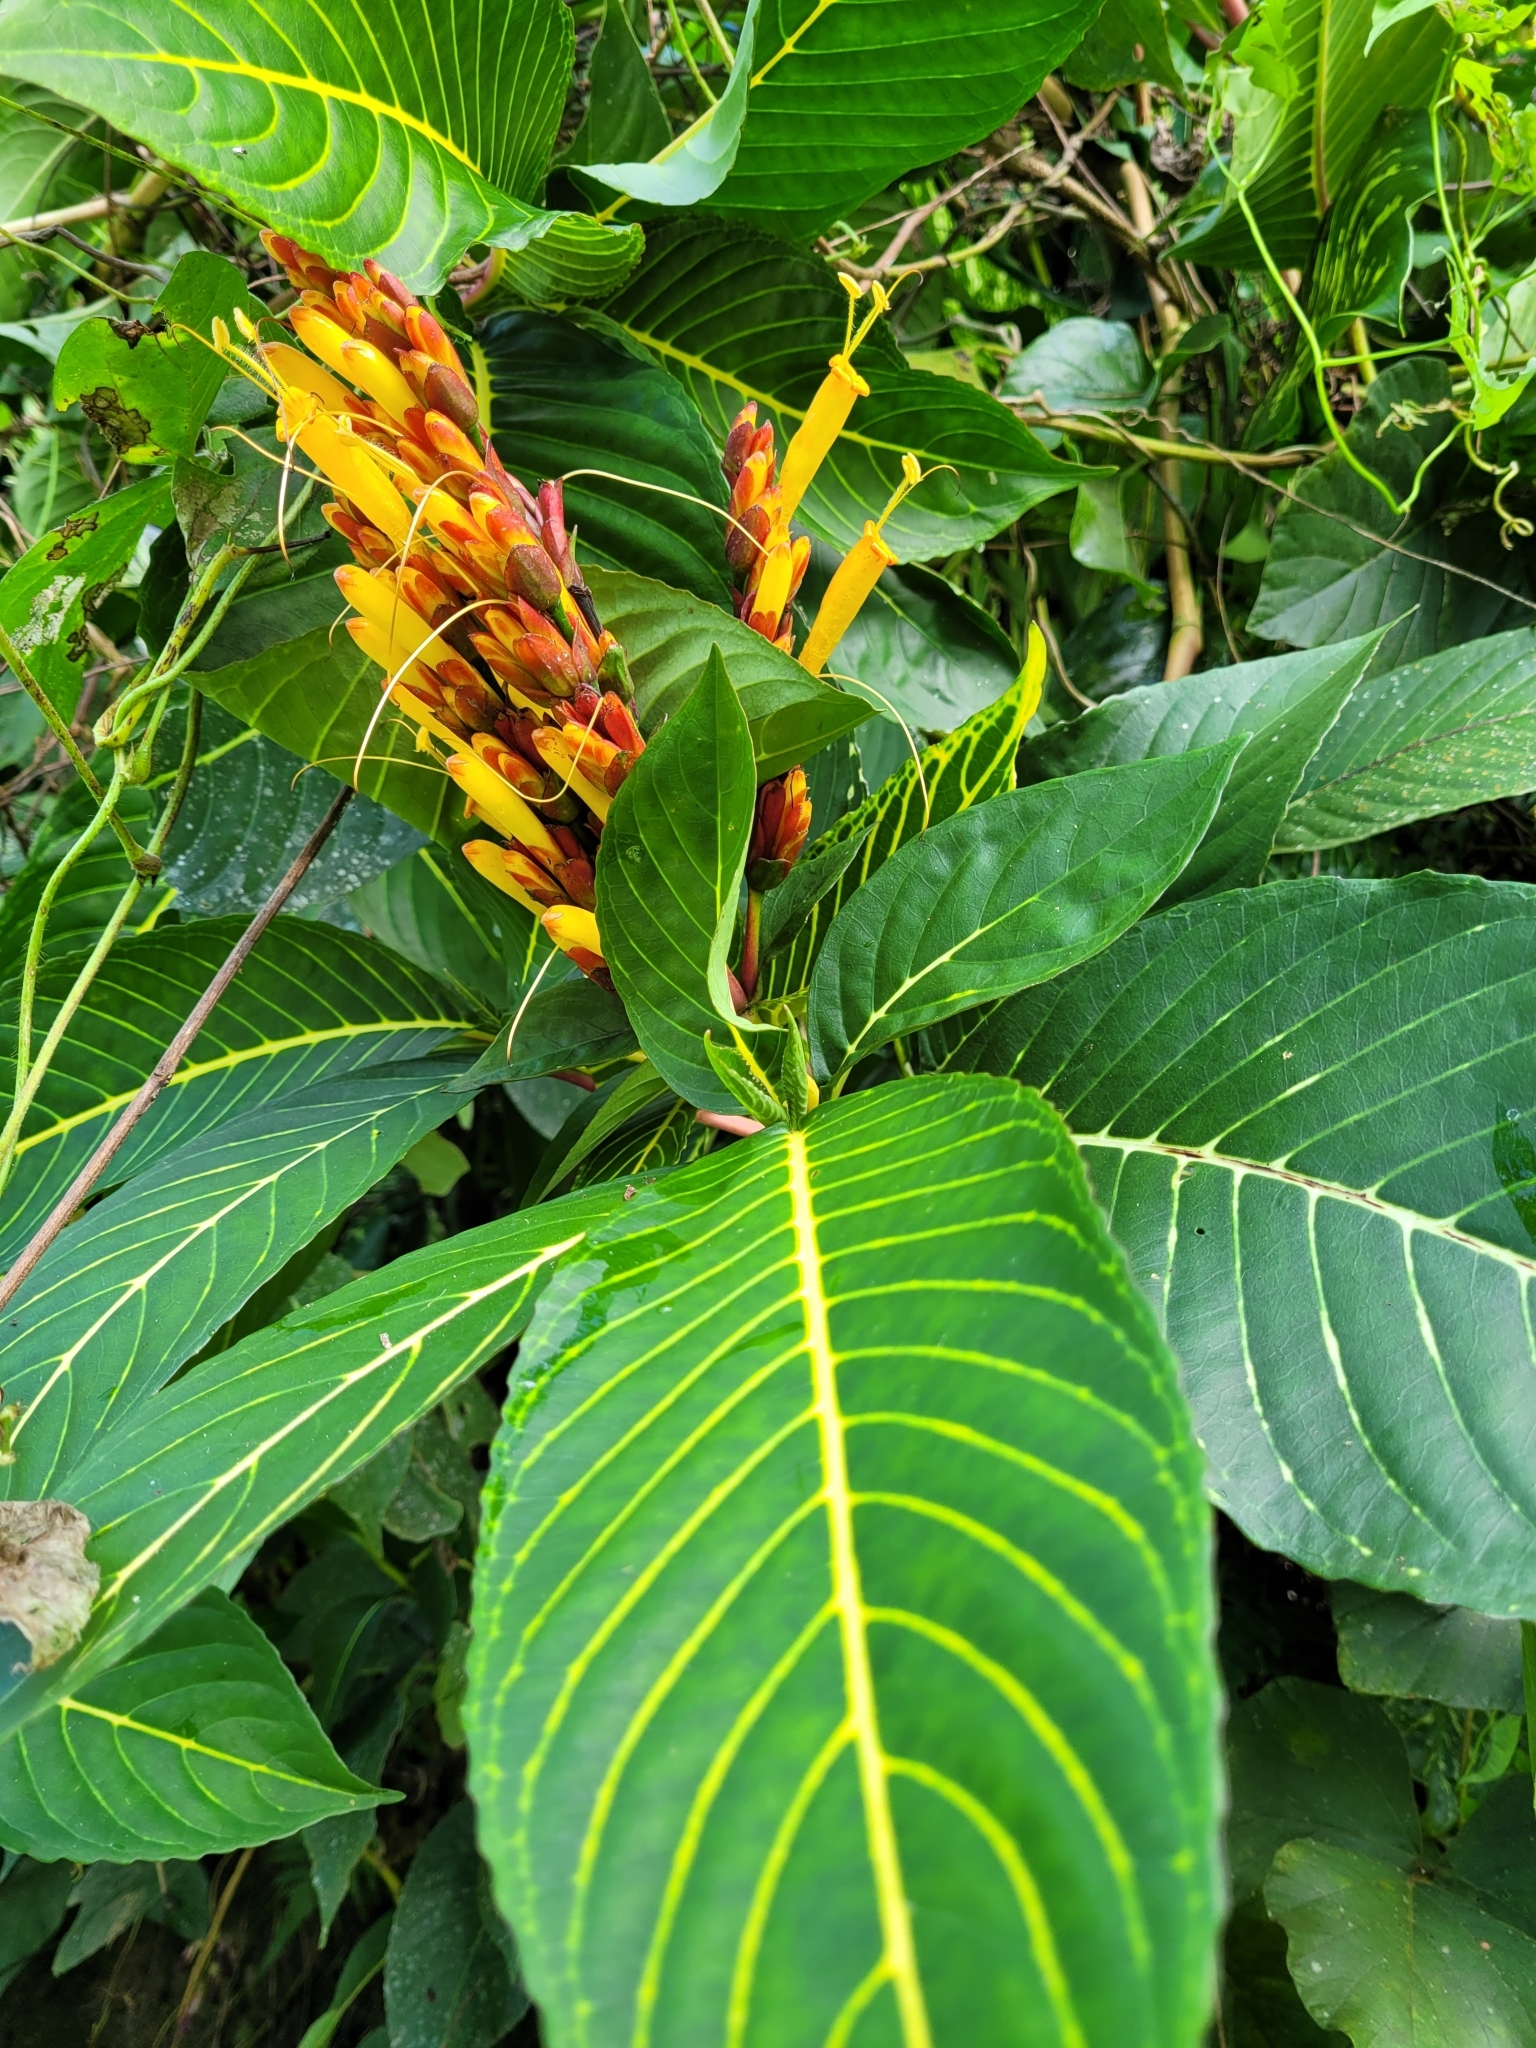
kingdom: Plantae
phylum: Tracheophyta
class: Magnoliopsida
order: Lamiales
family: Acanthaceae
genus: Sanchezia
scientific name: Sanchezia parvibracteata
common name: Sanchezia
